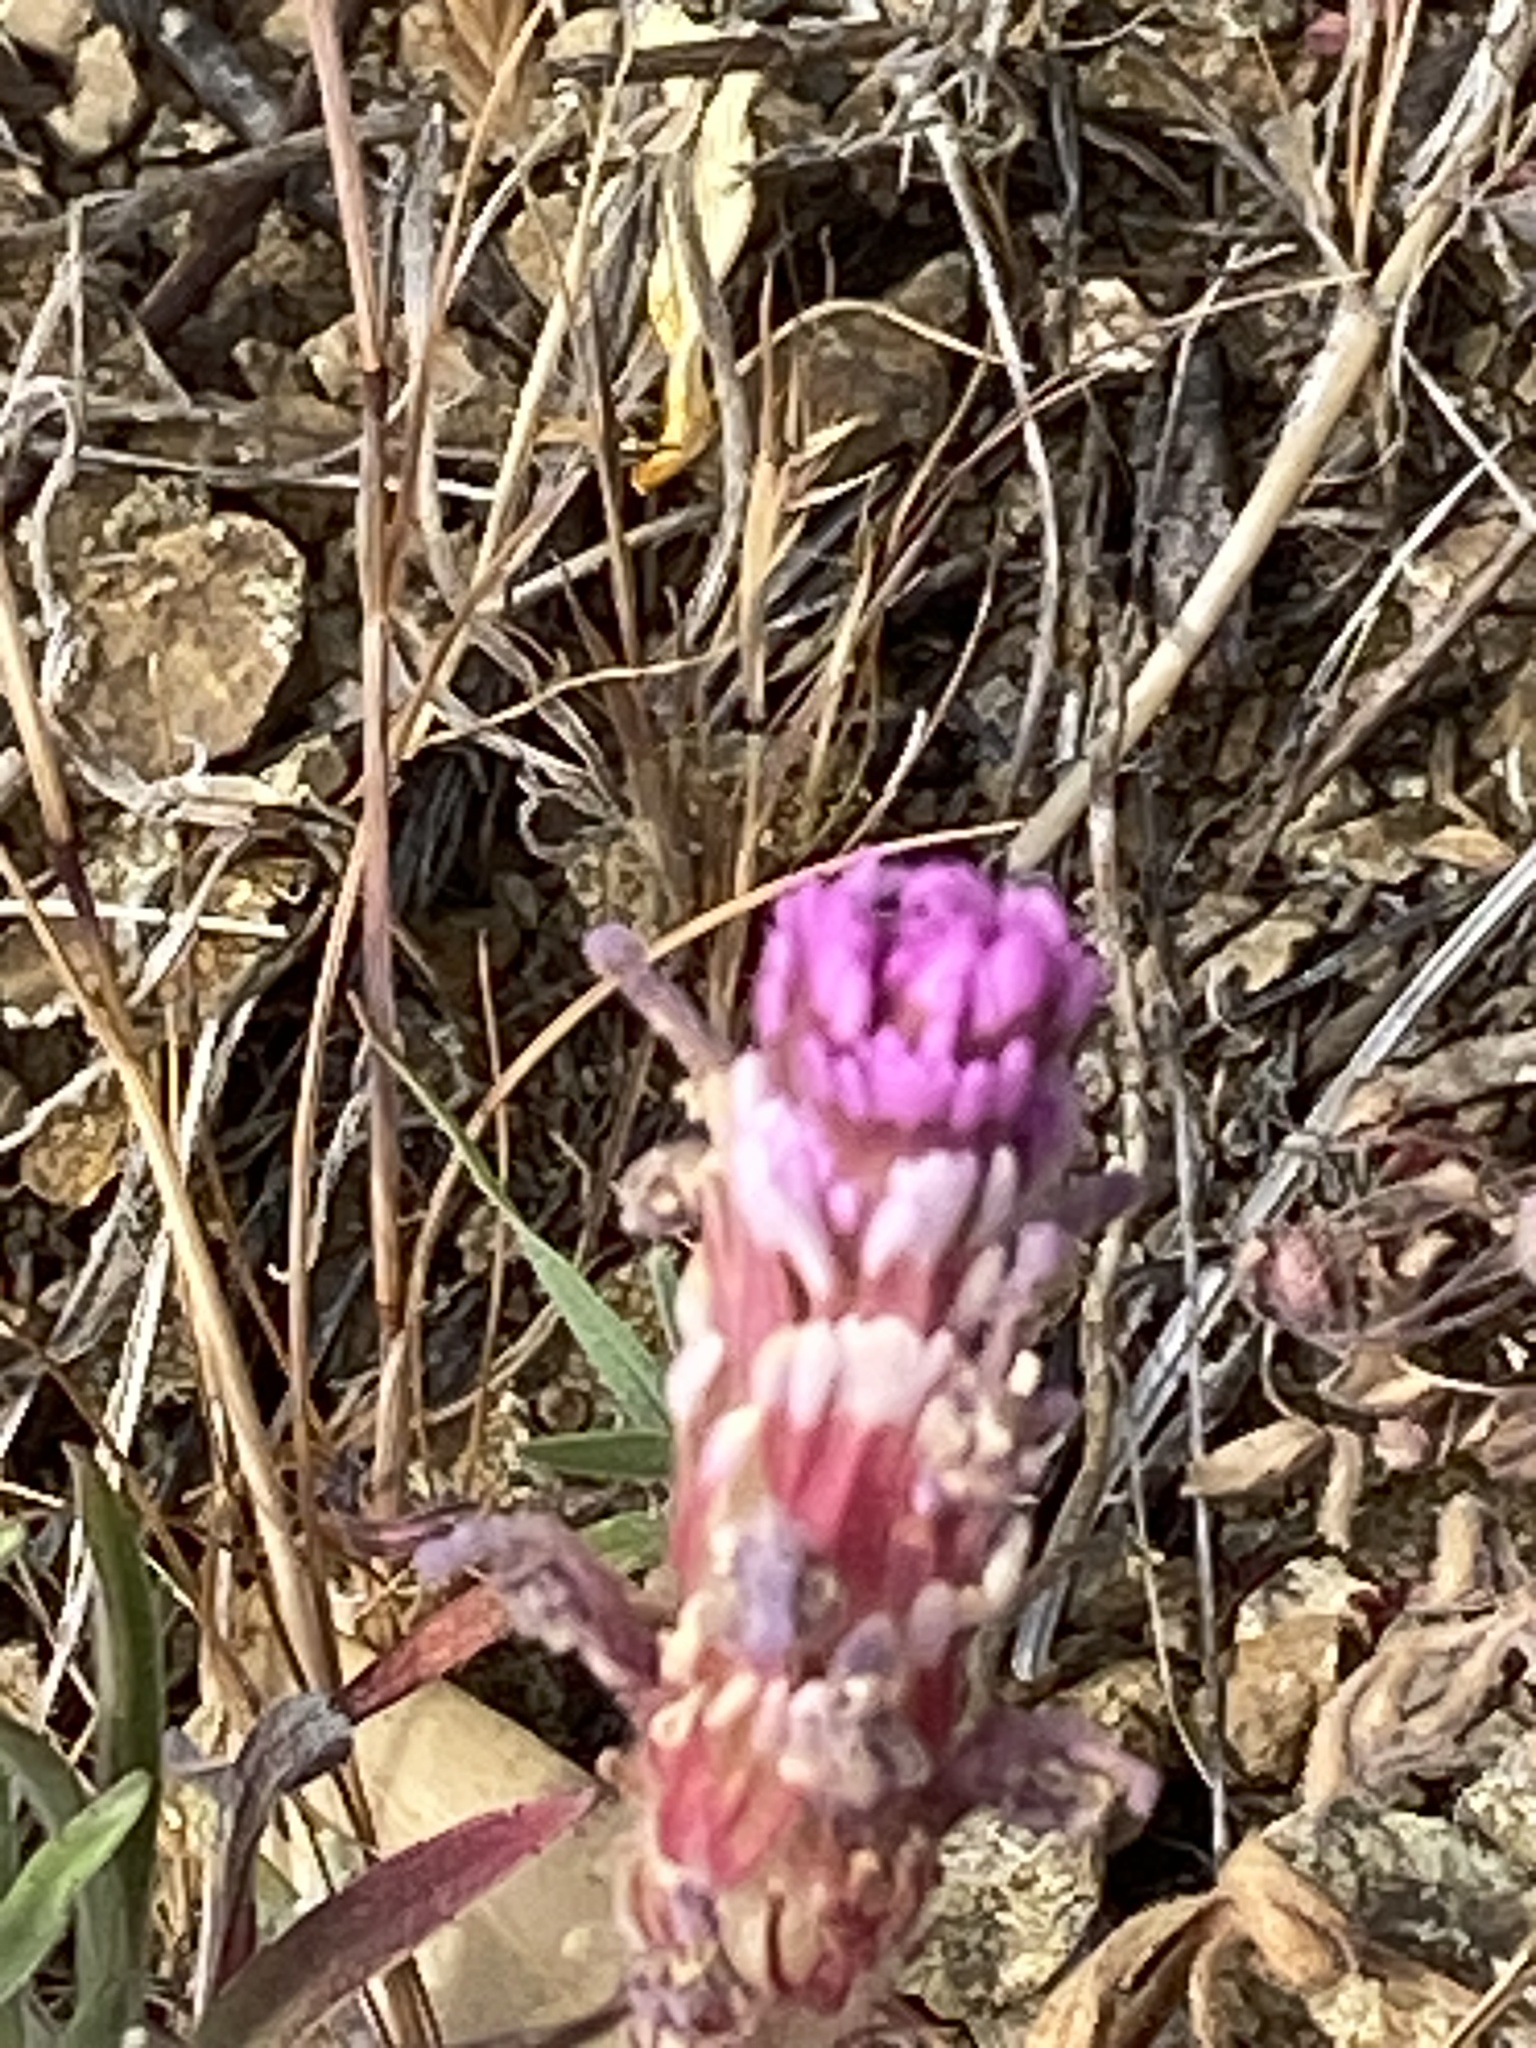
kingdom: Plantae
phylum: Tracheophyta
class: Magnoliopsida
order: Lamiales
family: Orobanchaceae
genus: Castilleja
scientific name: Castilleja exserta
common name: Purple owl-clover
